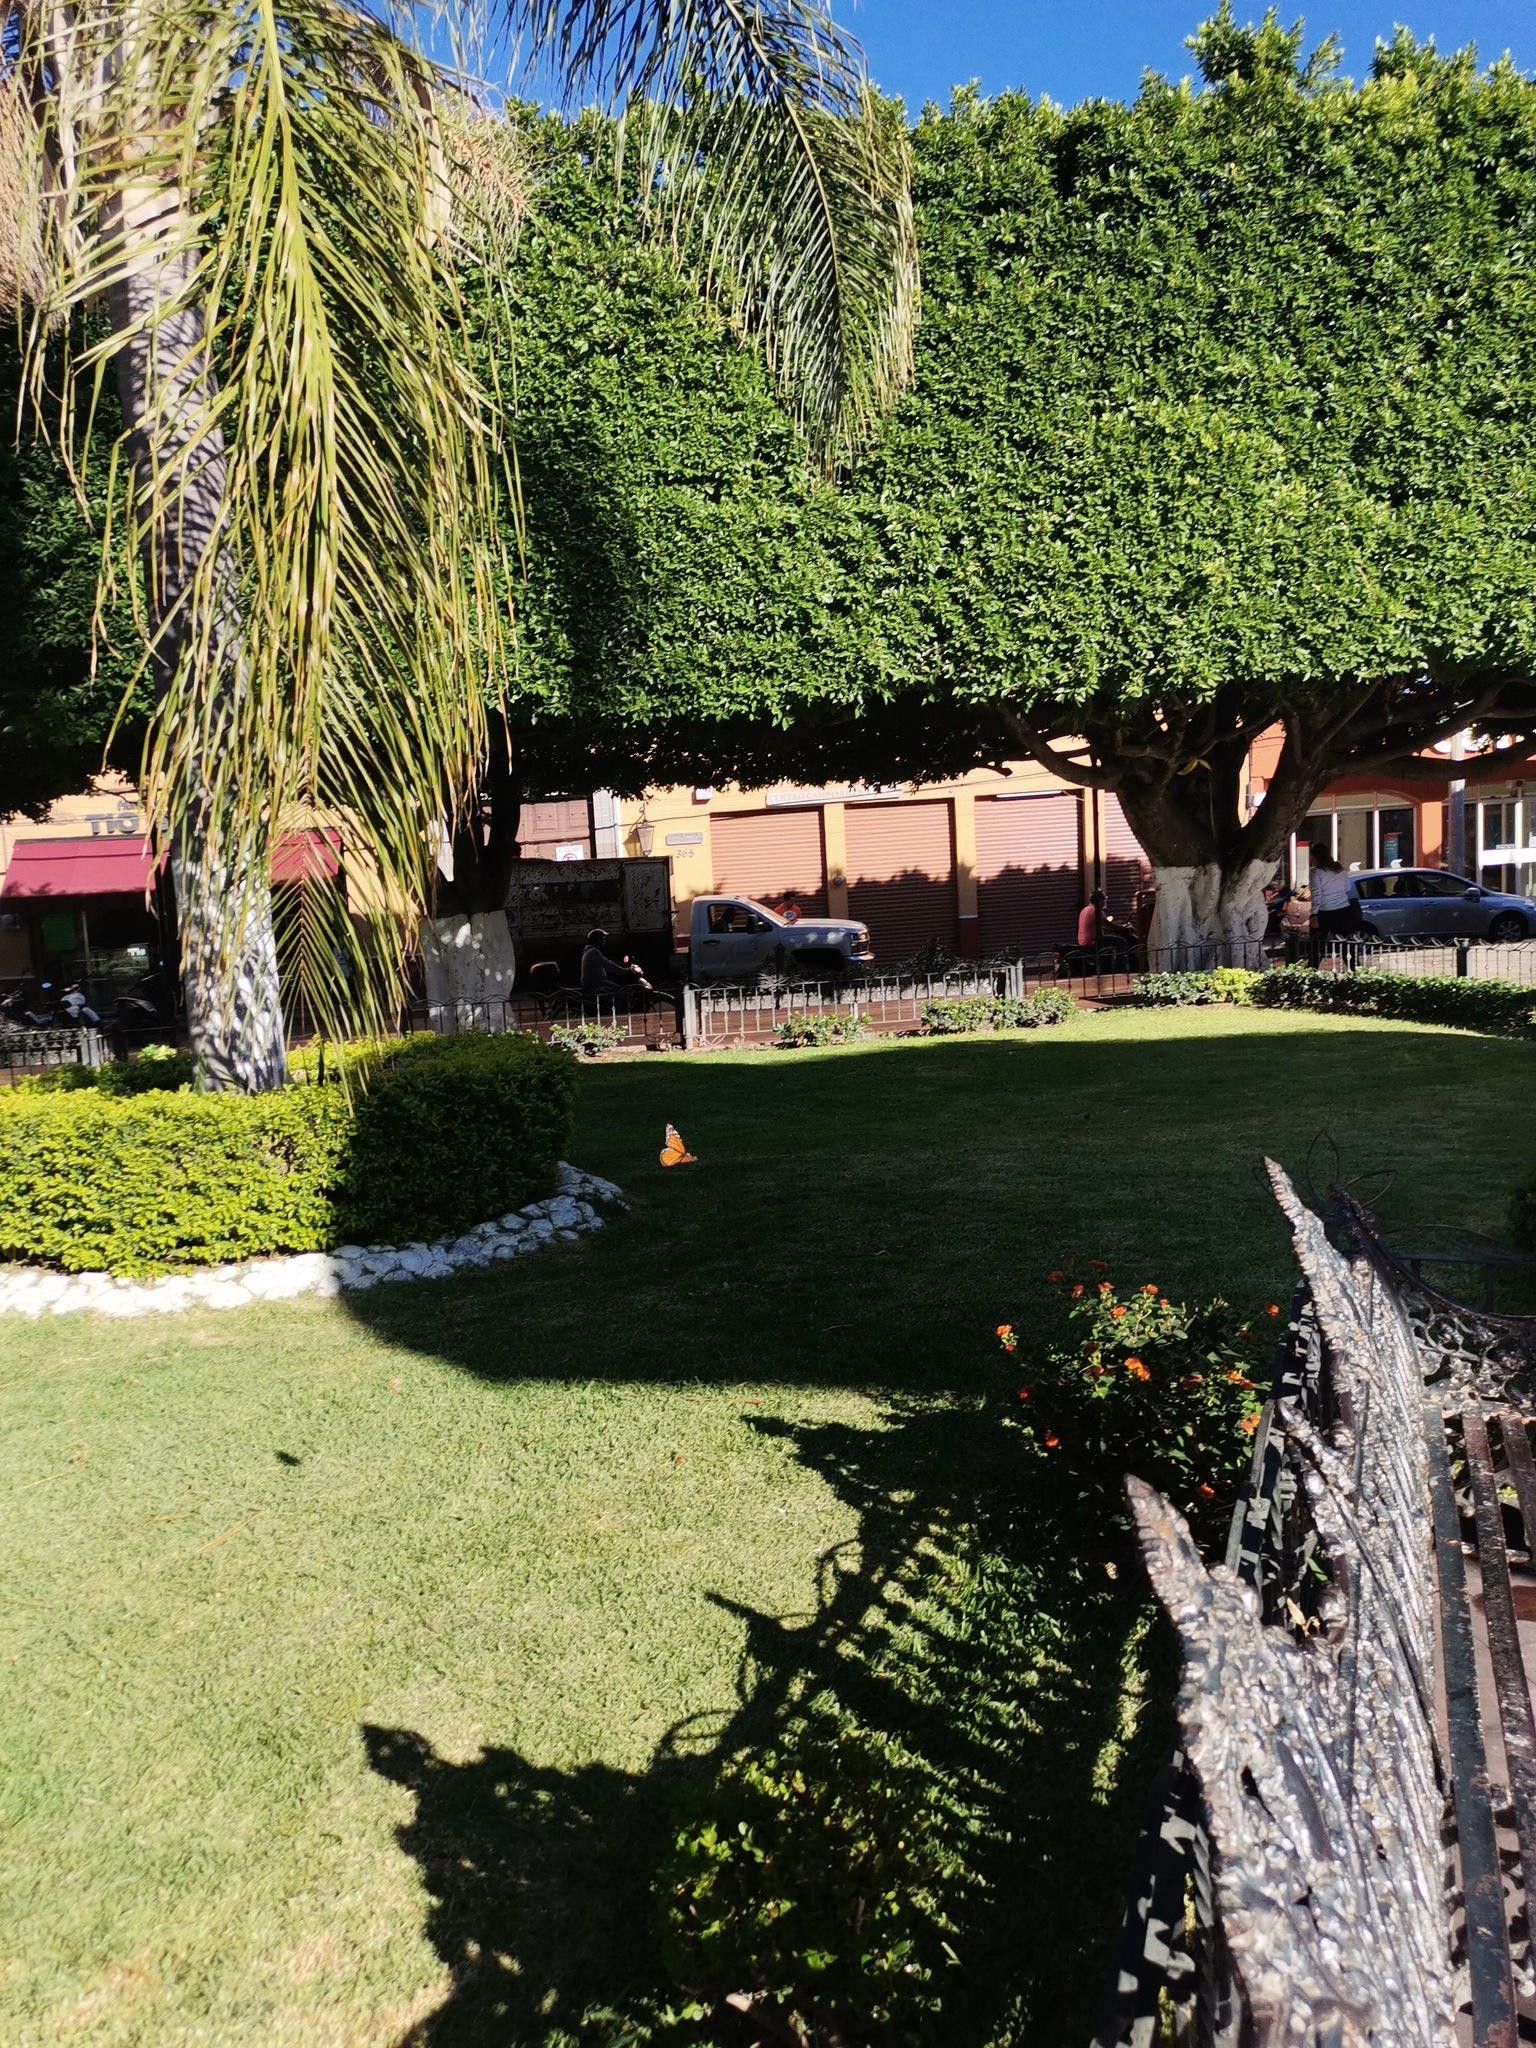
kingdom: Animalia
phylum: Arthropoda
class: Insecta
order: Lepidoptera
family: Nymphalidae
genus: Danaus
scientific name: Danaus plexippus
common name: Monarch
